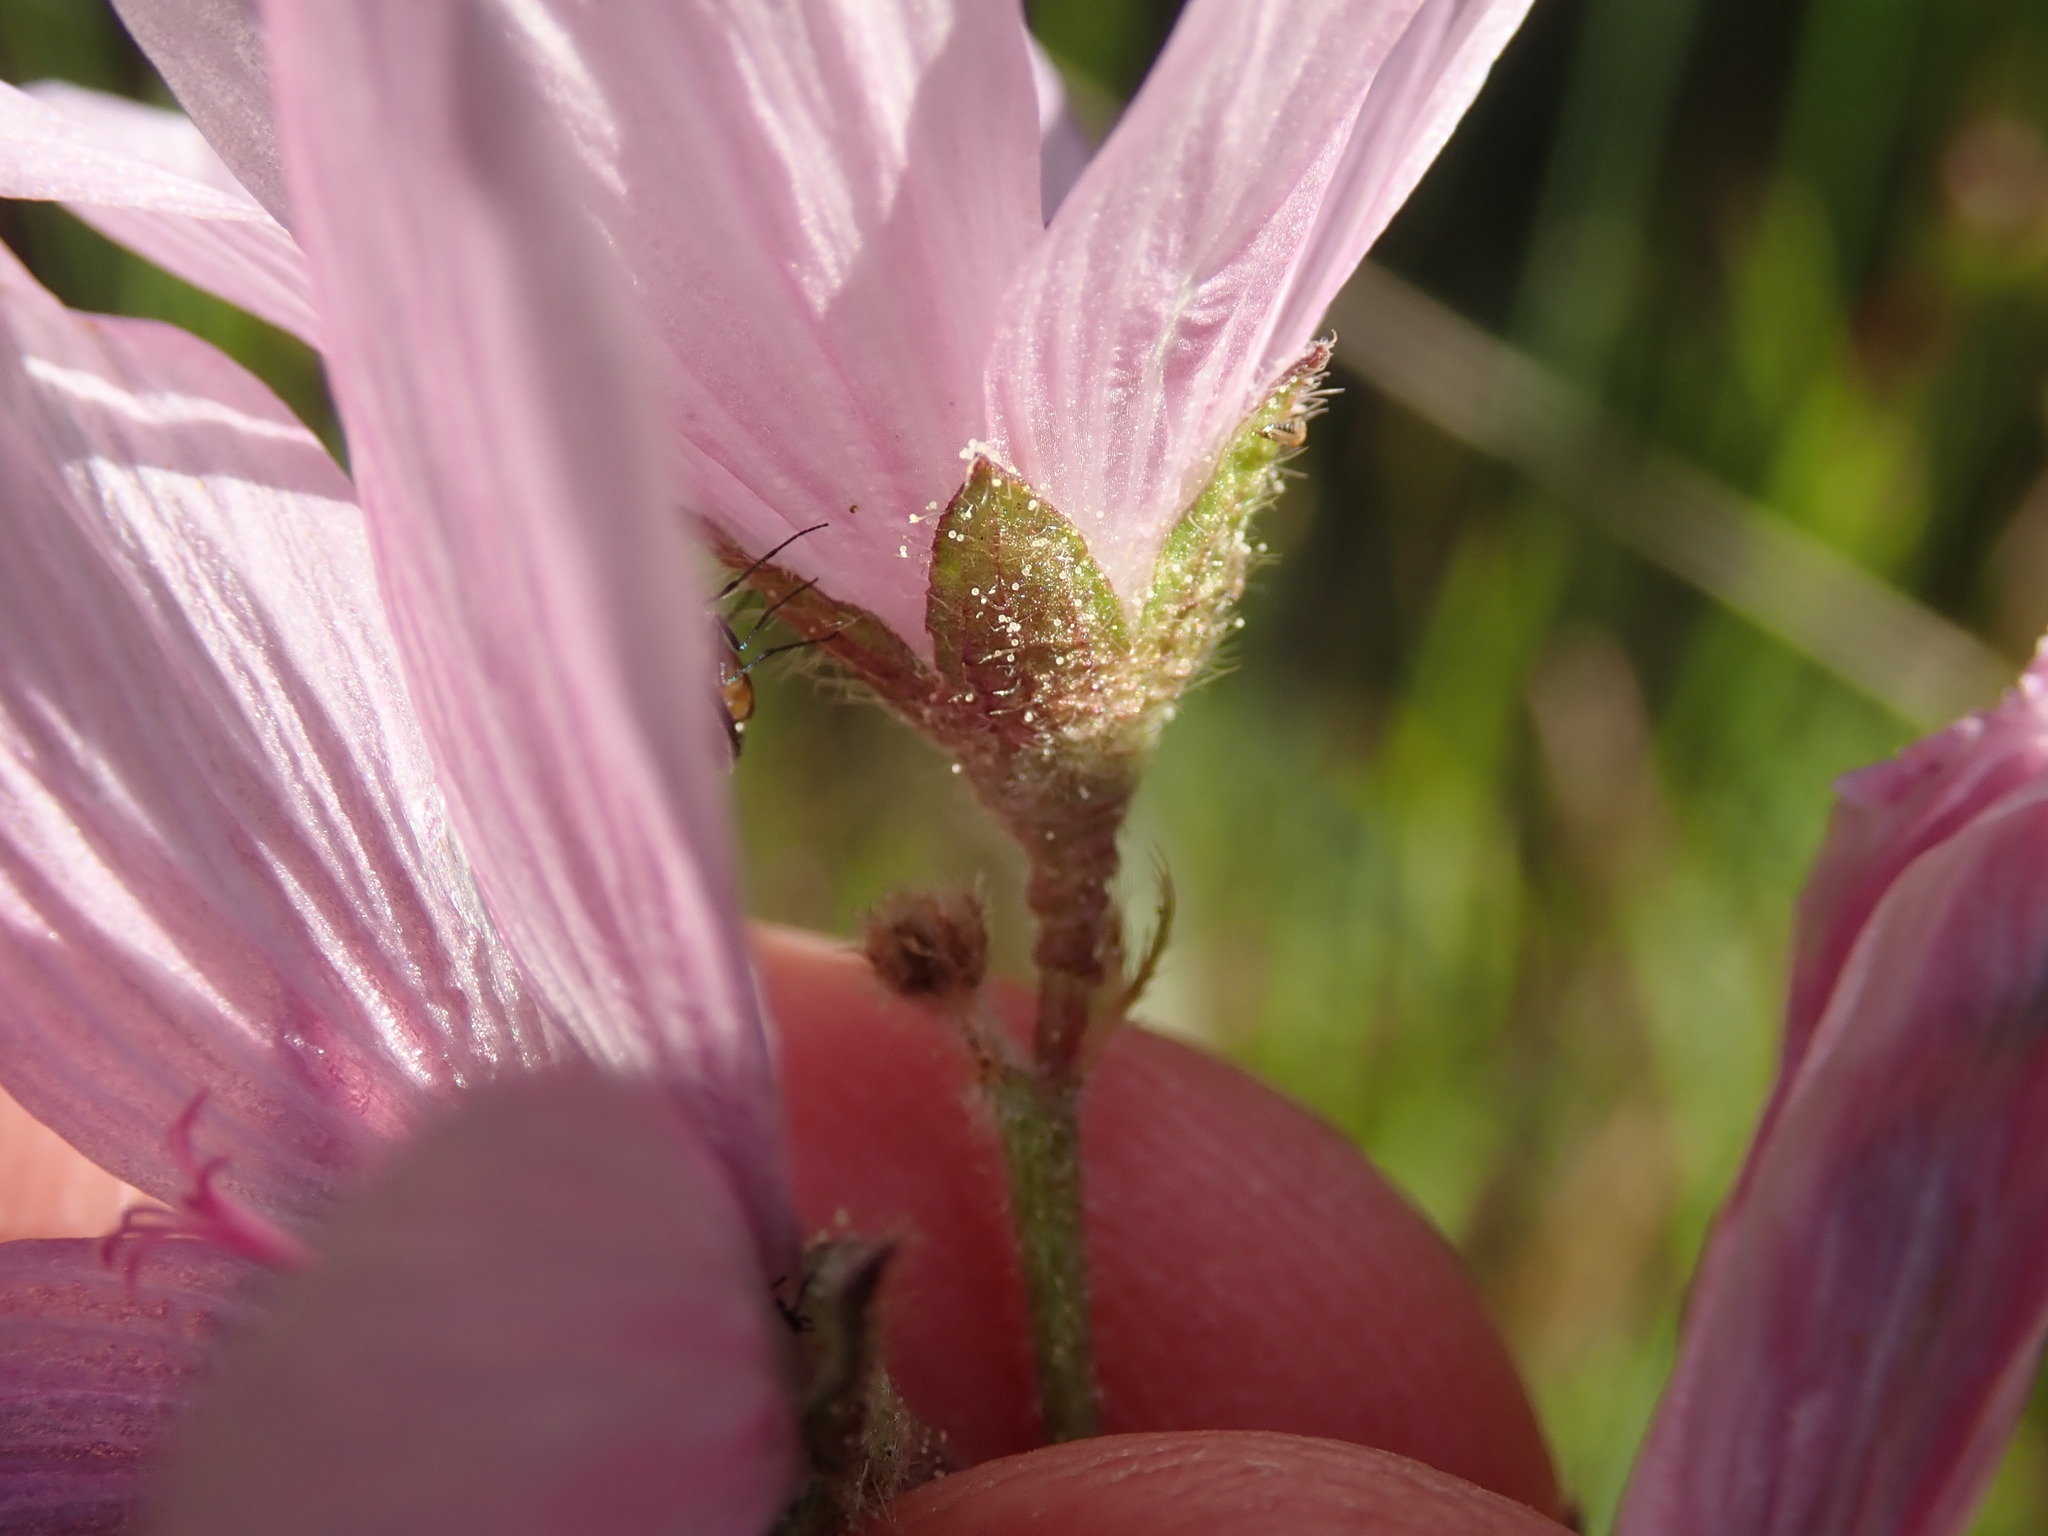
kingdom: Plantae
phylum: Tracheophyta
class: Magnoliopsida
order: Malvales
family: Malvaceae
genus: Sidalcea
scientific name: Sidalcea malviflora
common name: Greek mallow
